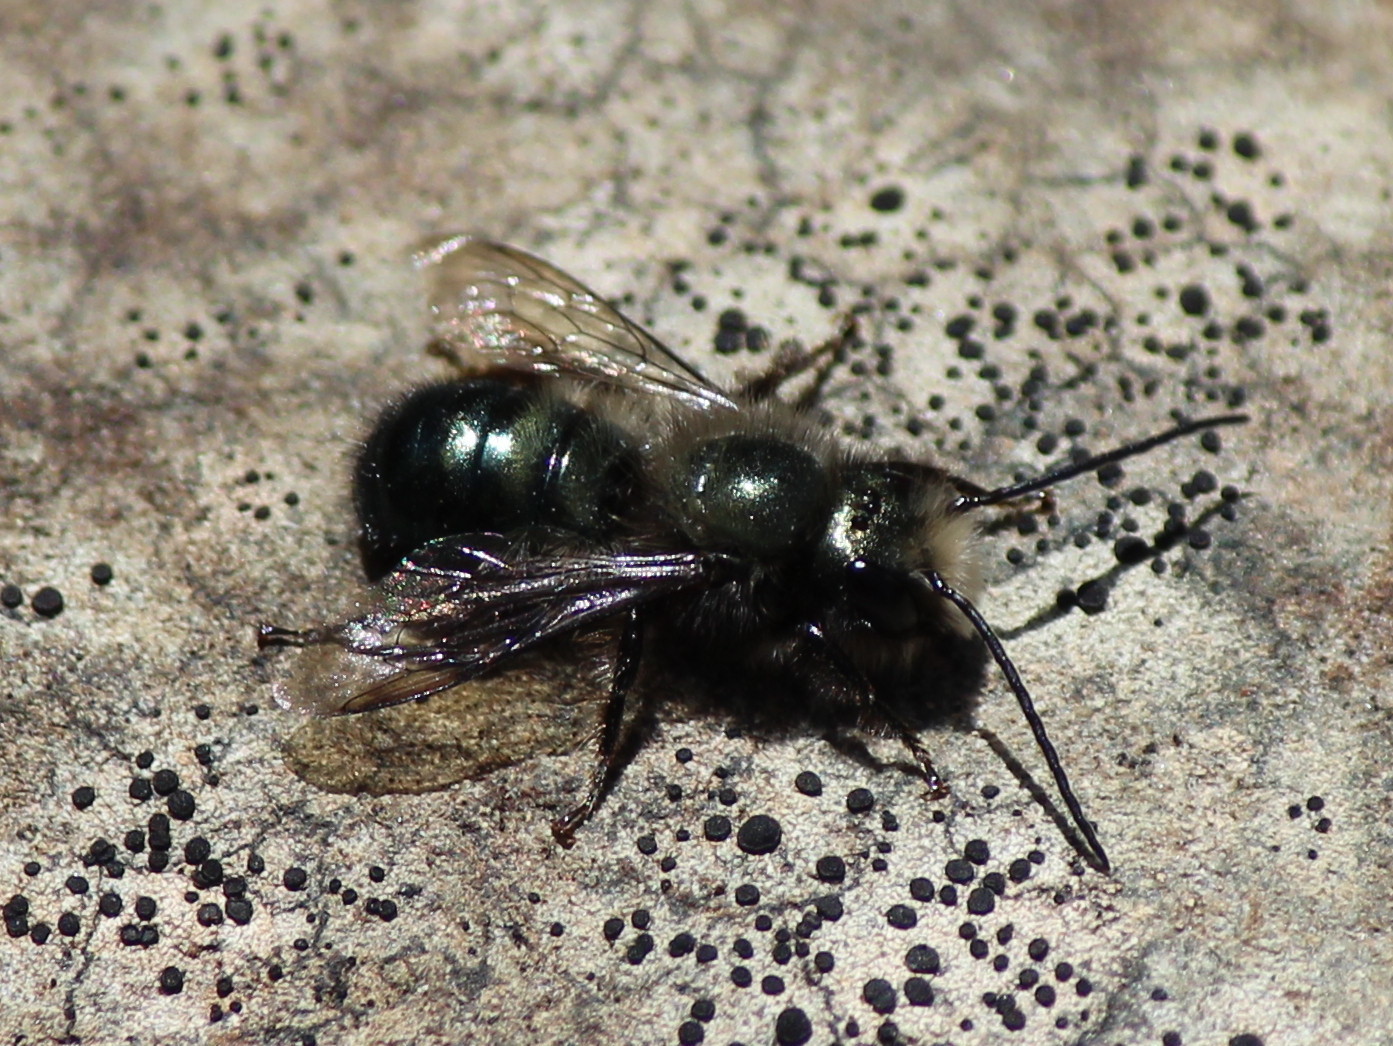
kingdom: Animalia
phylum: Arthropoda
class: Insecta
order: Hymenoptera
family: Megachilidae
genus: Osmia
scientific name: Osmia lignaria
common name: Blue orchard bee
